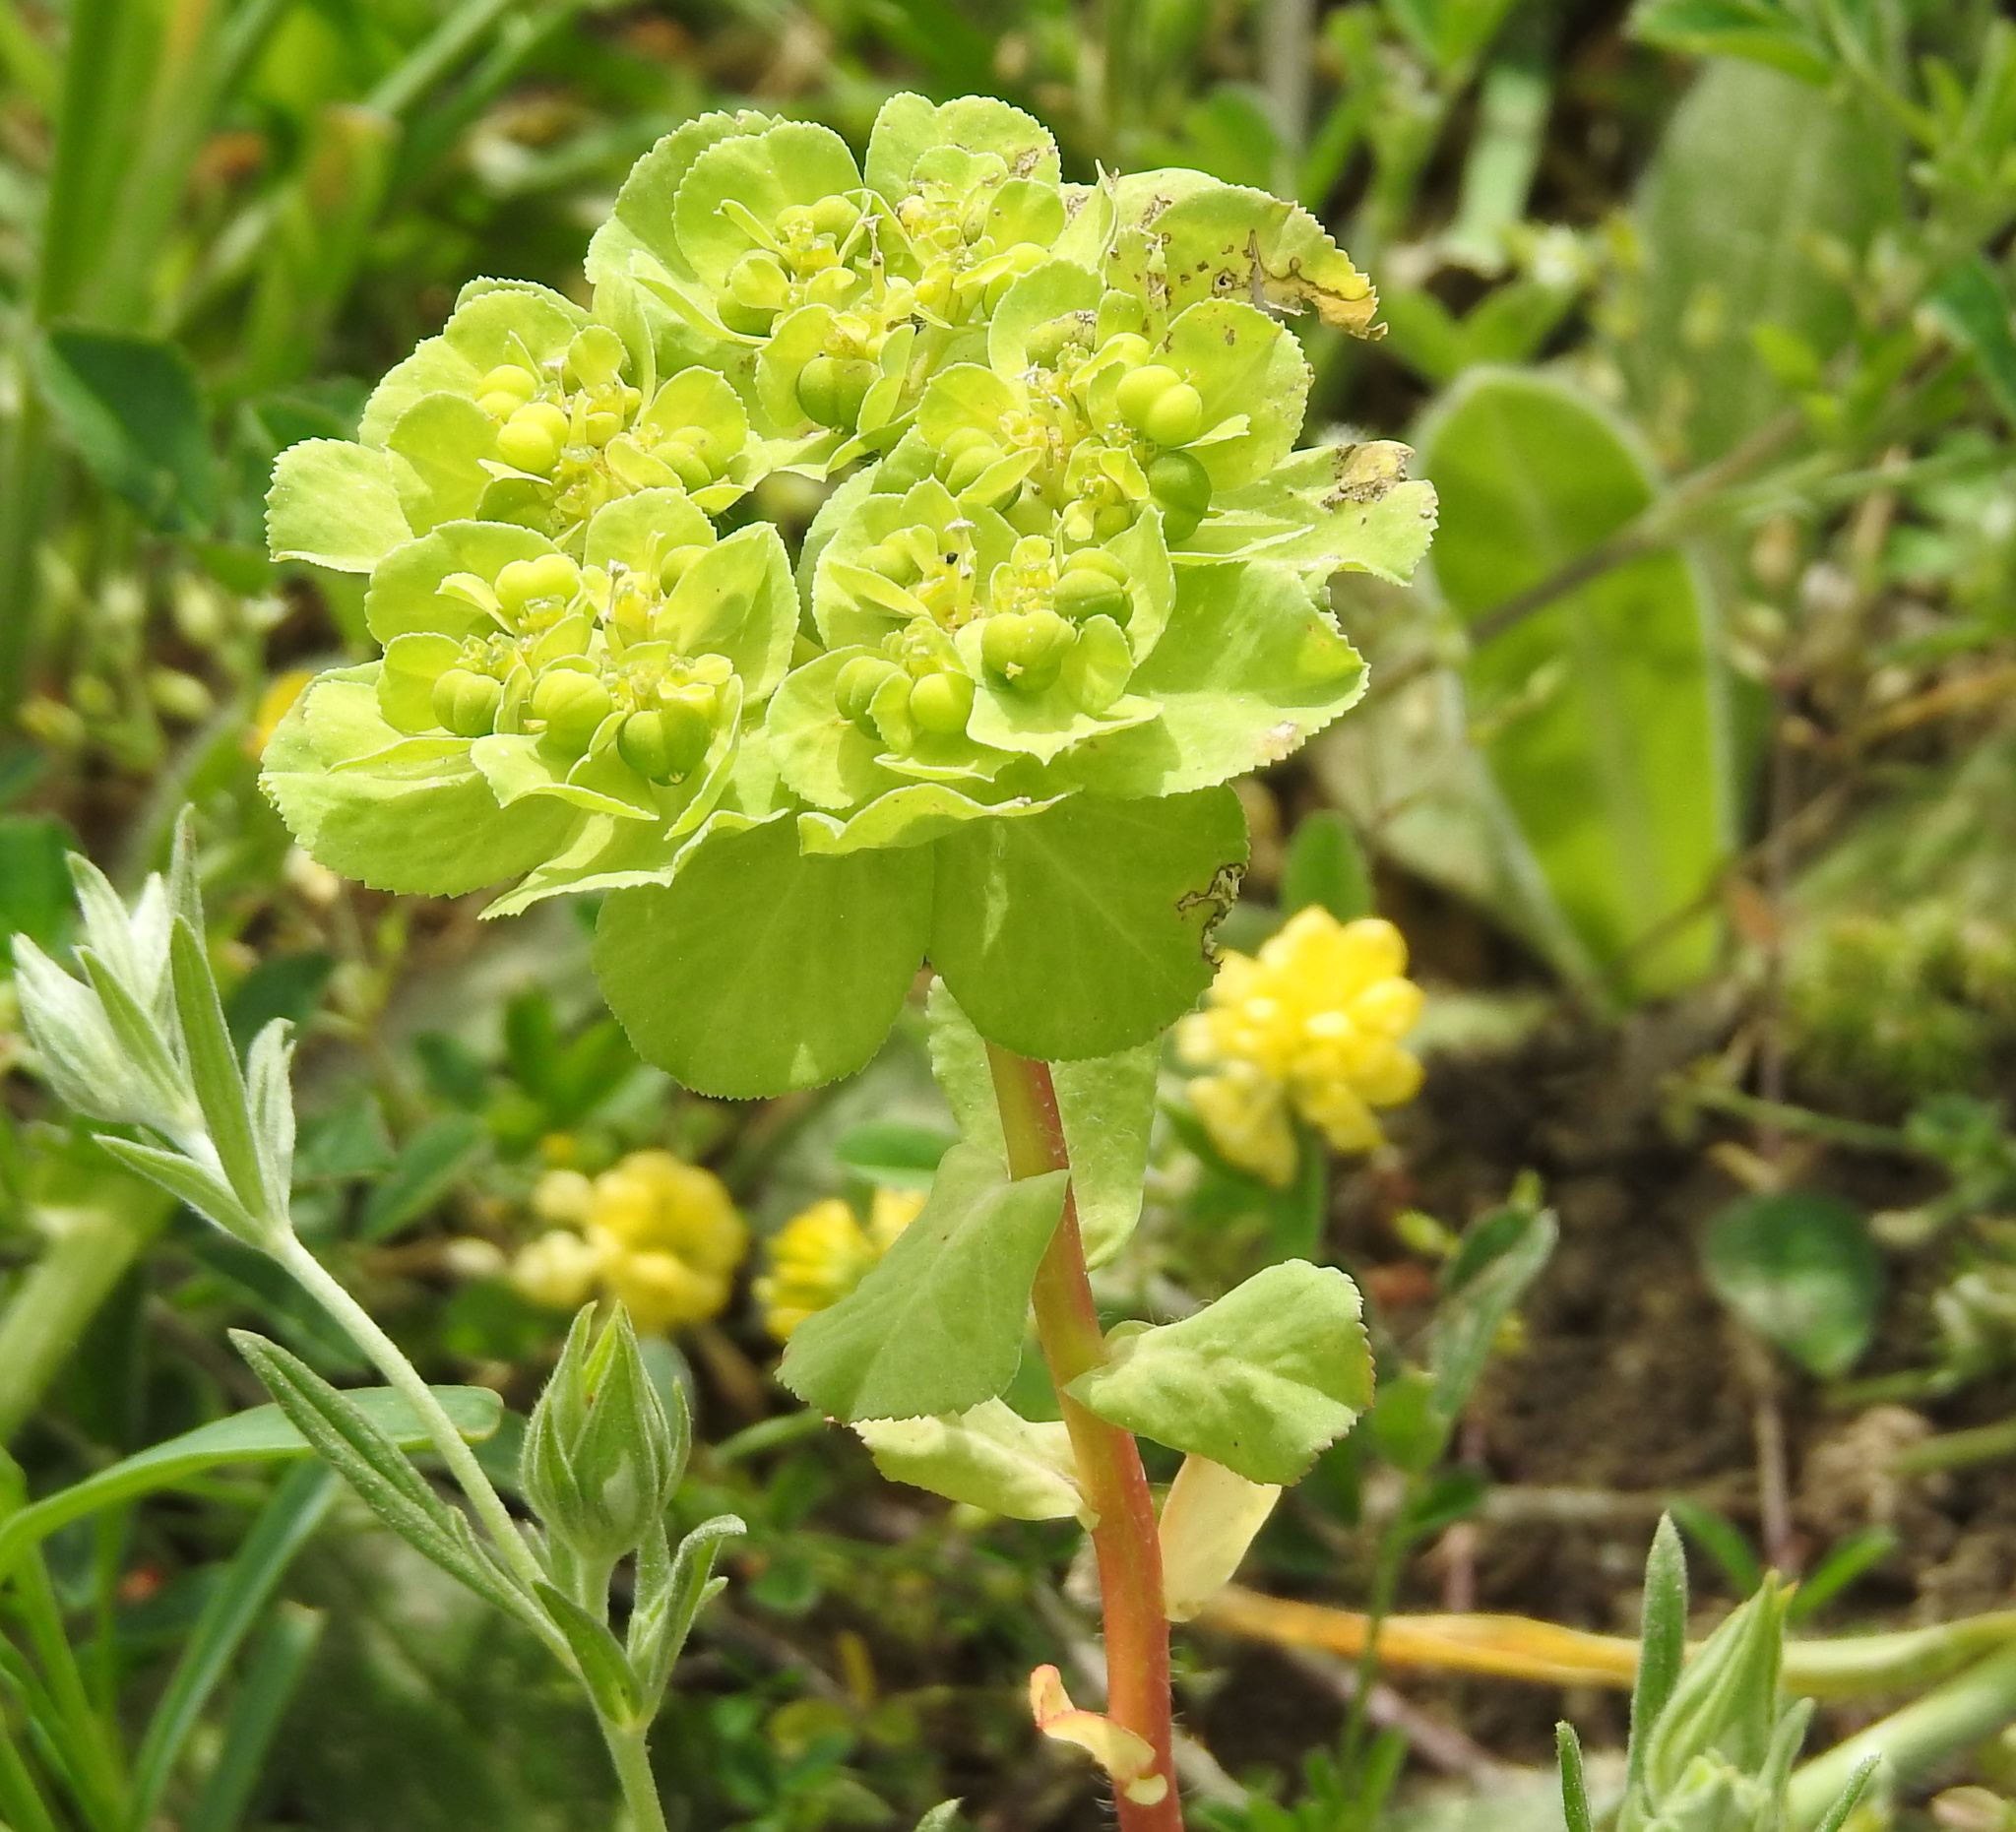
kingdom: Plantae
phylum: Tracheophyta
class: Magnoliopsida
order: Malpighiales
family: Euphorbiaceae
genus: Euphorbia
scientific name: Euphorbia helioscopia
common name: Sun spurge
